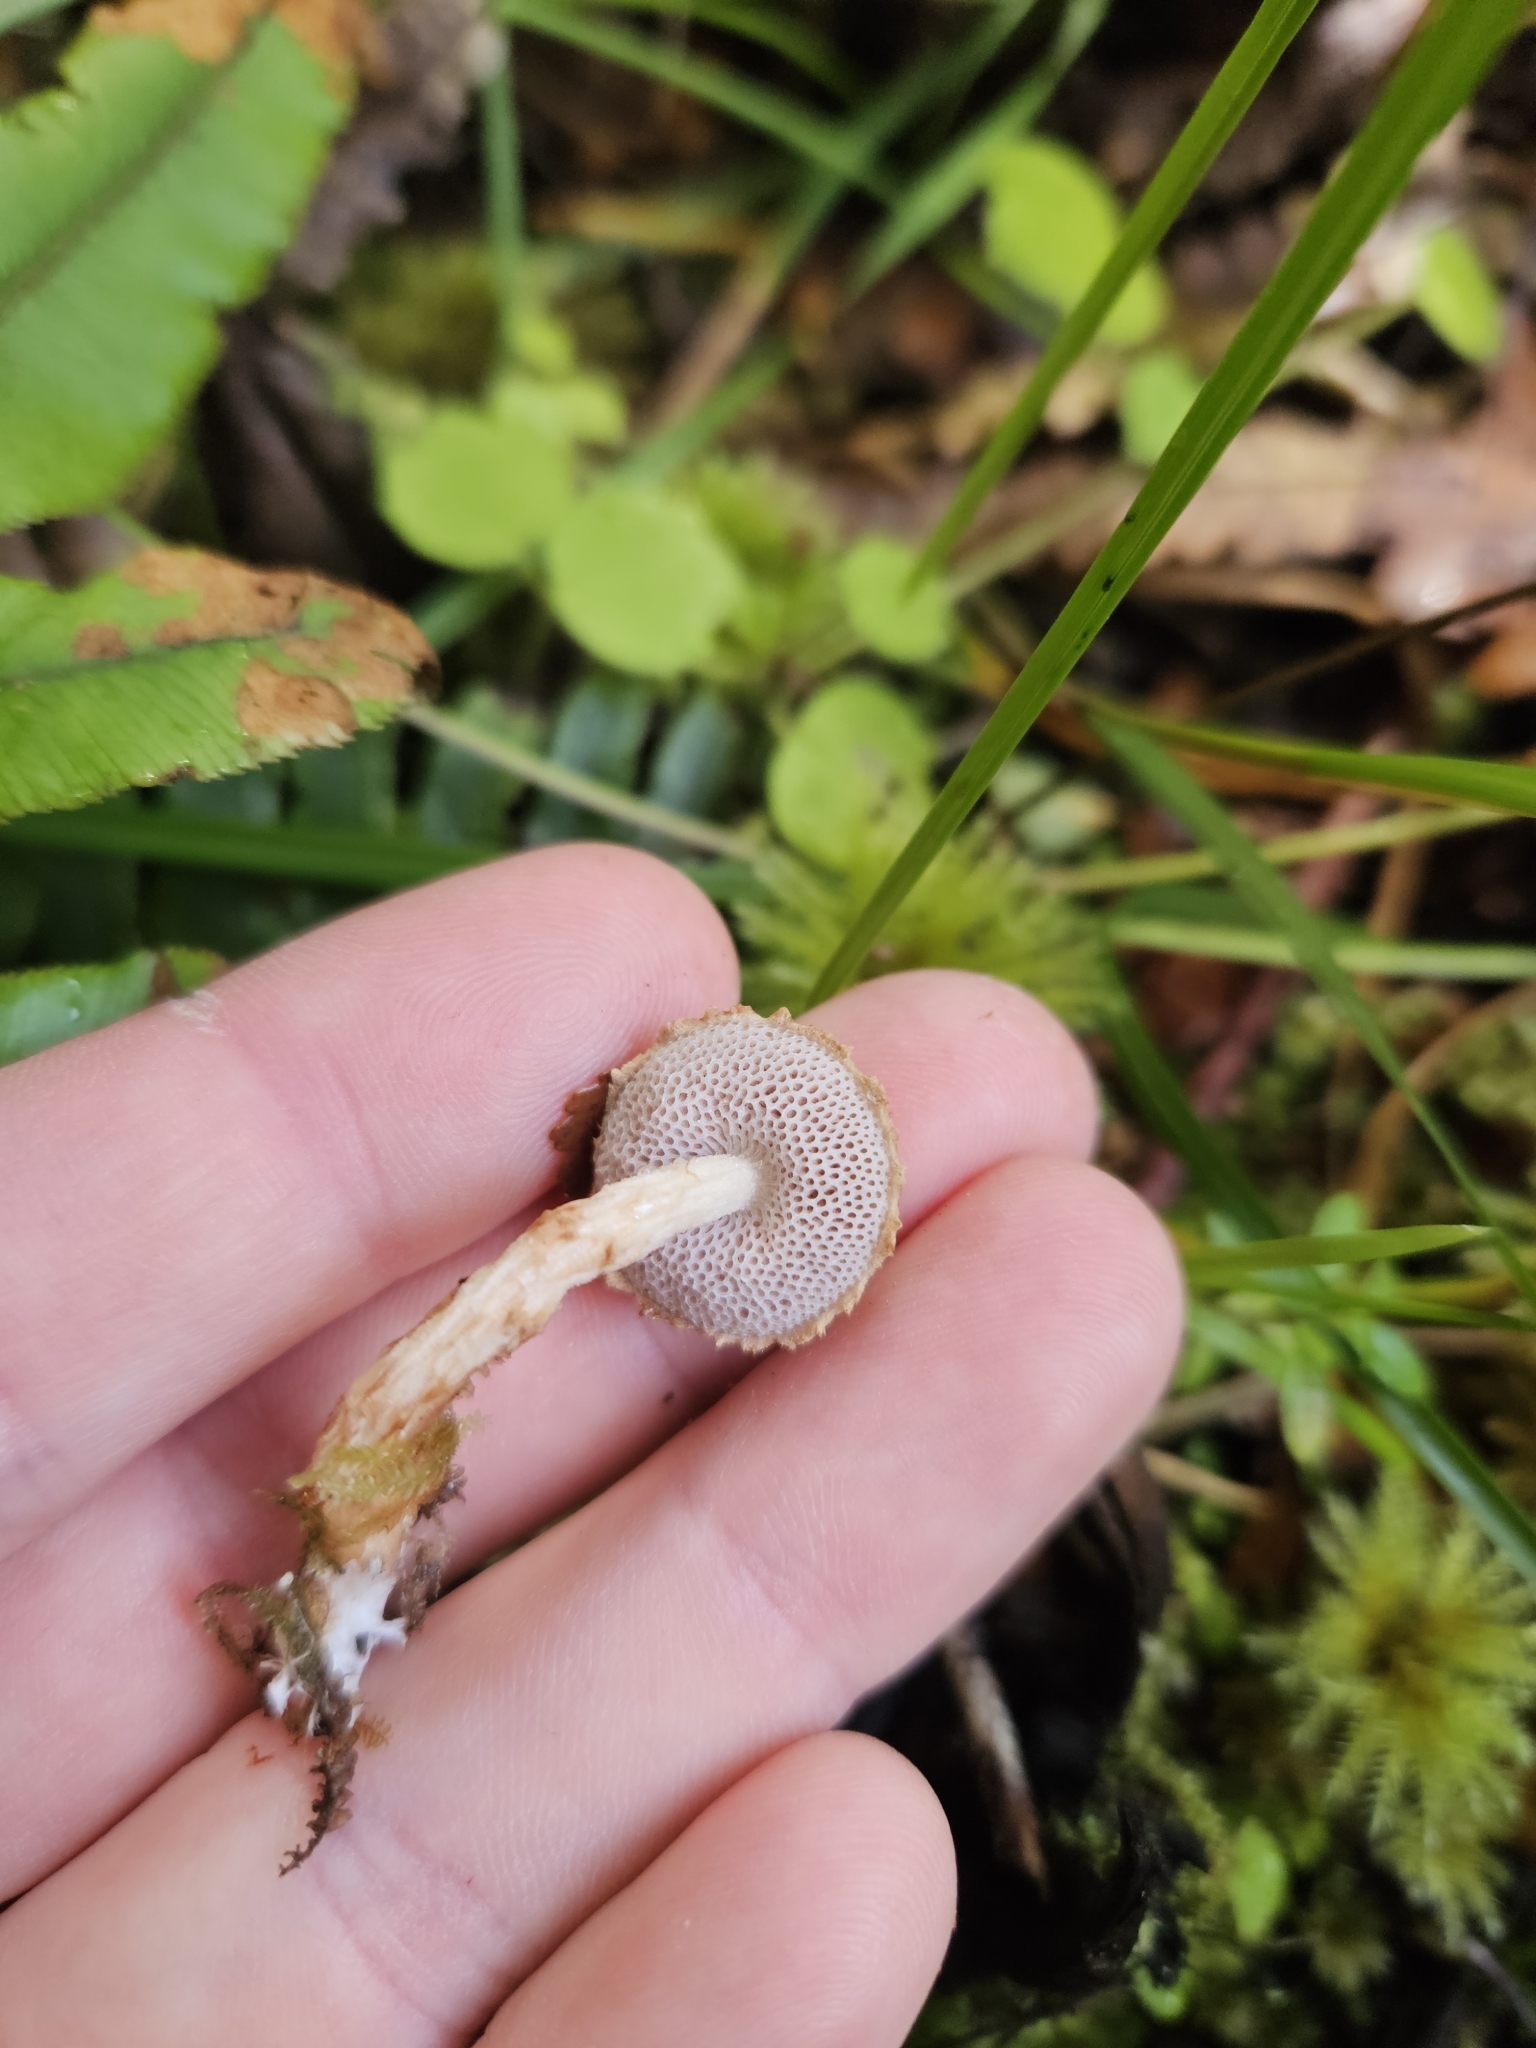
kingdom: Fungi
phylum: Basidiomycota
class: Agaricomycetes
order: Boletales
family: Boletaceae
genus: Austroboletus
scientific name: Austroboletus lacunosus
